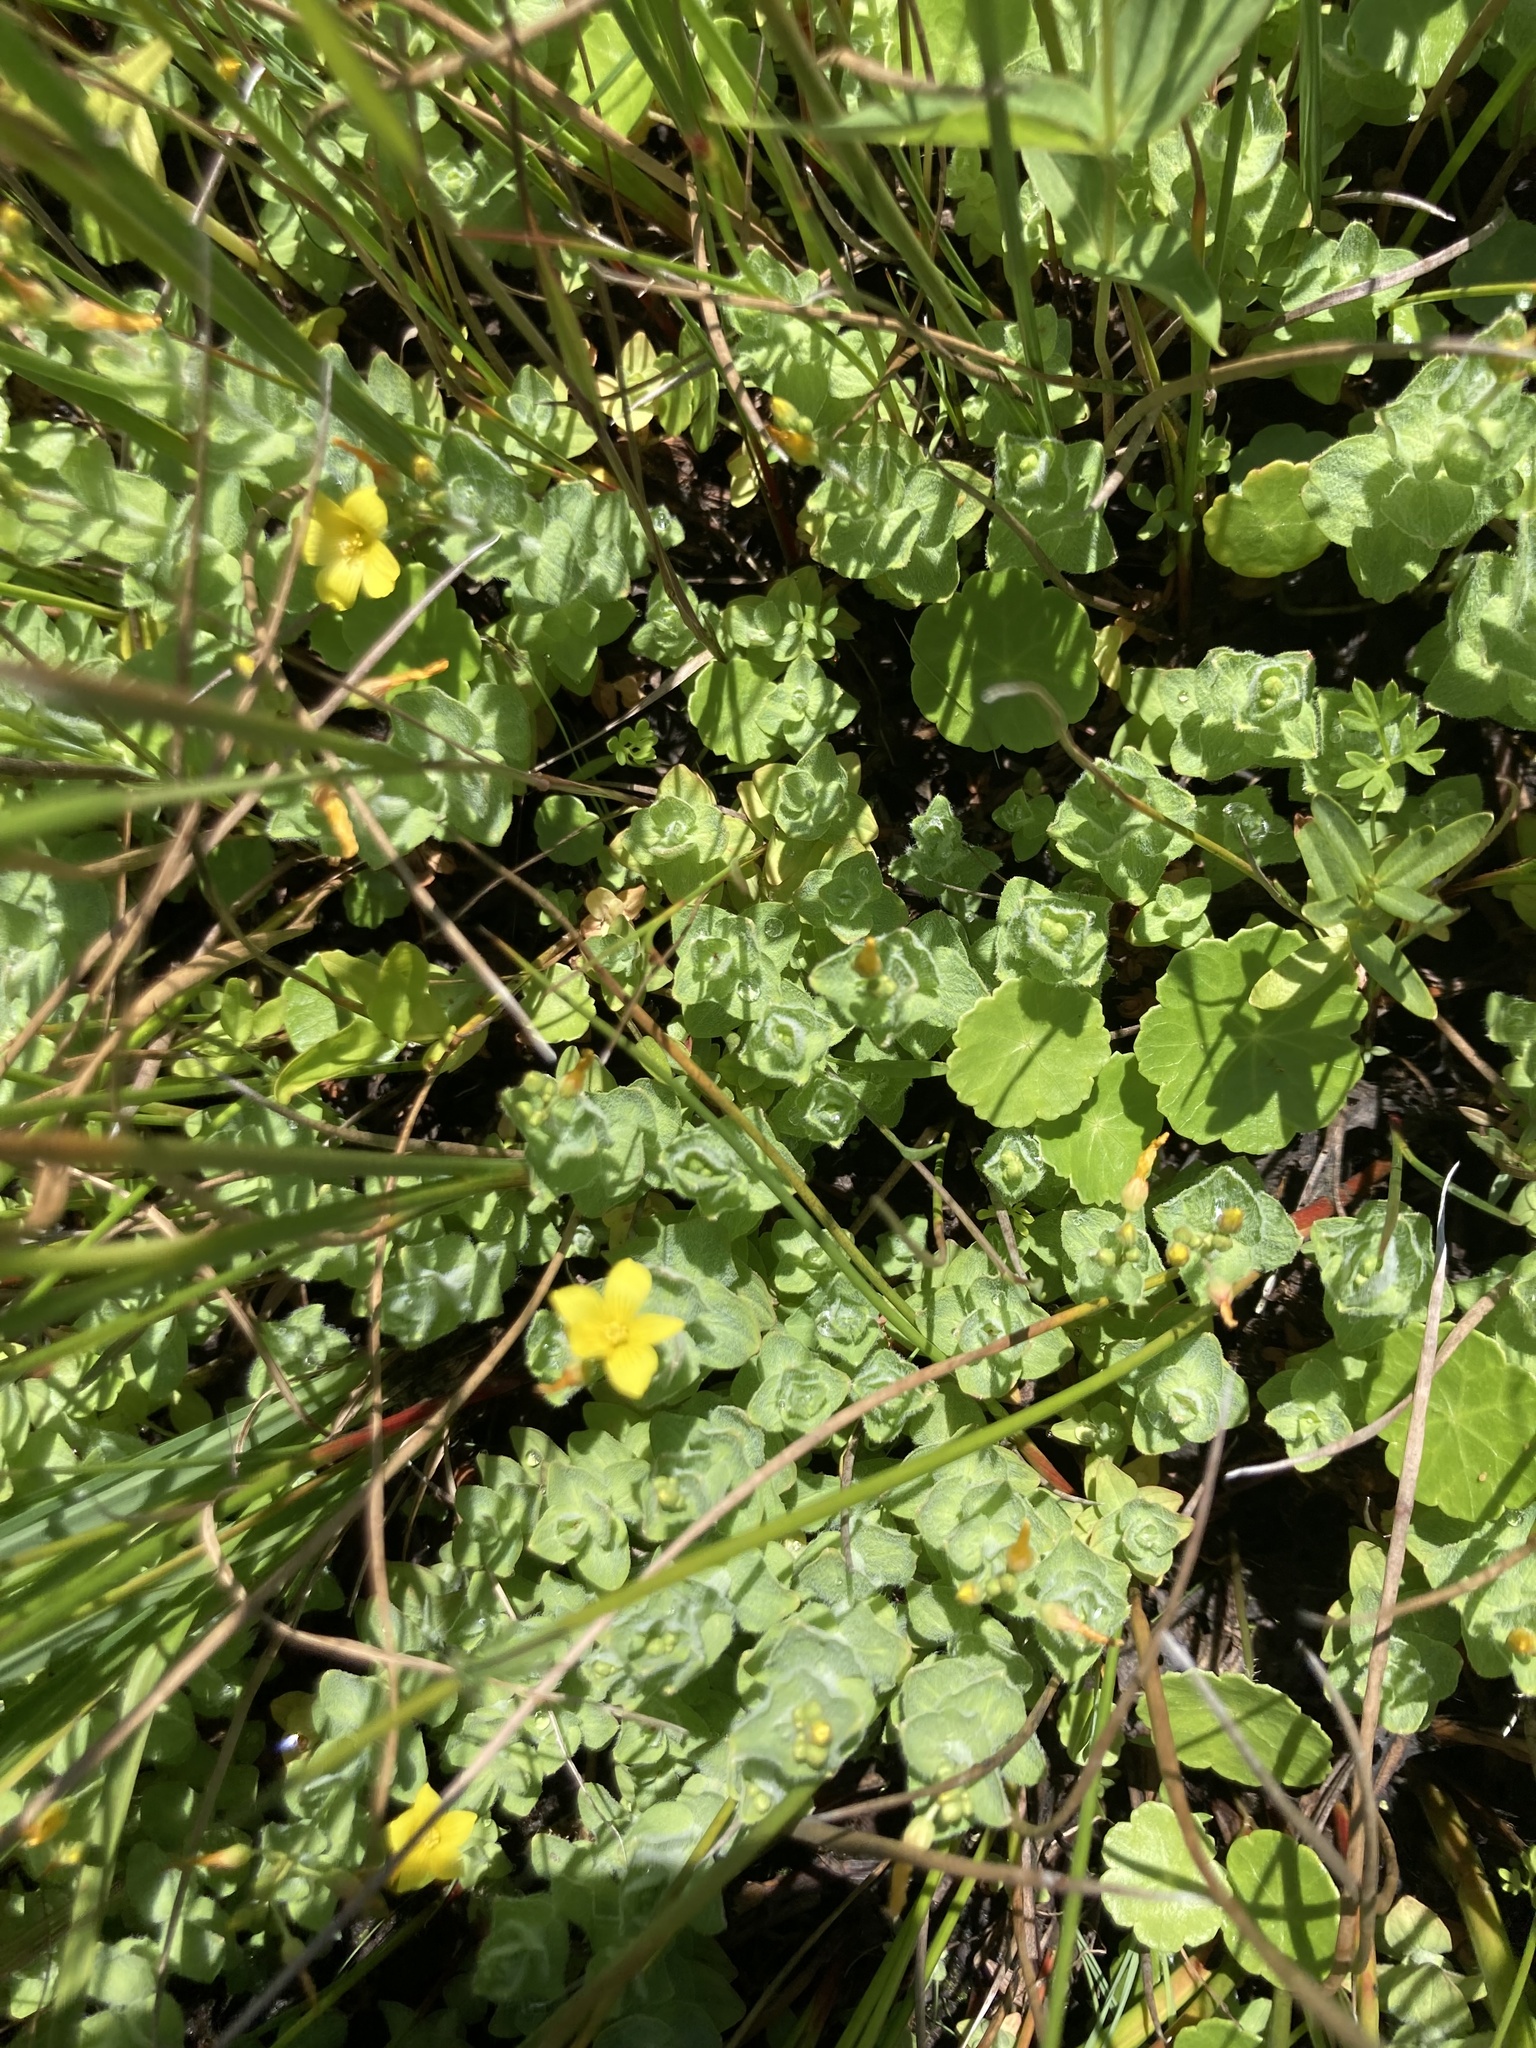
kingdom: Plantae
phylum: Tracheophyta
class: Magnoliopsida
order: Malpighiales
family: Hypericaceae
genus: Hypericum
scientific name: Hypericum elodes
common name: Marsh st. john's-wort
